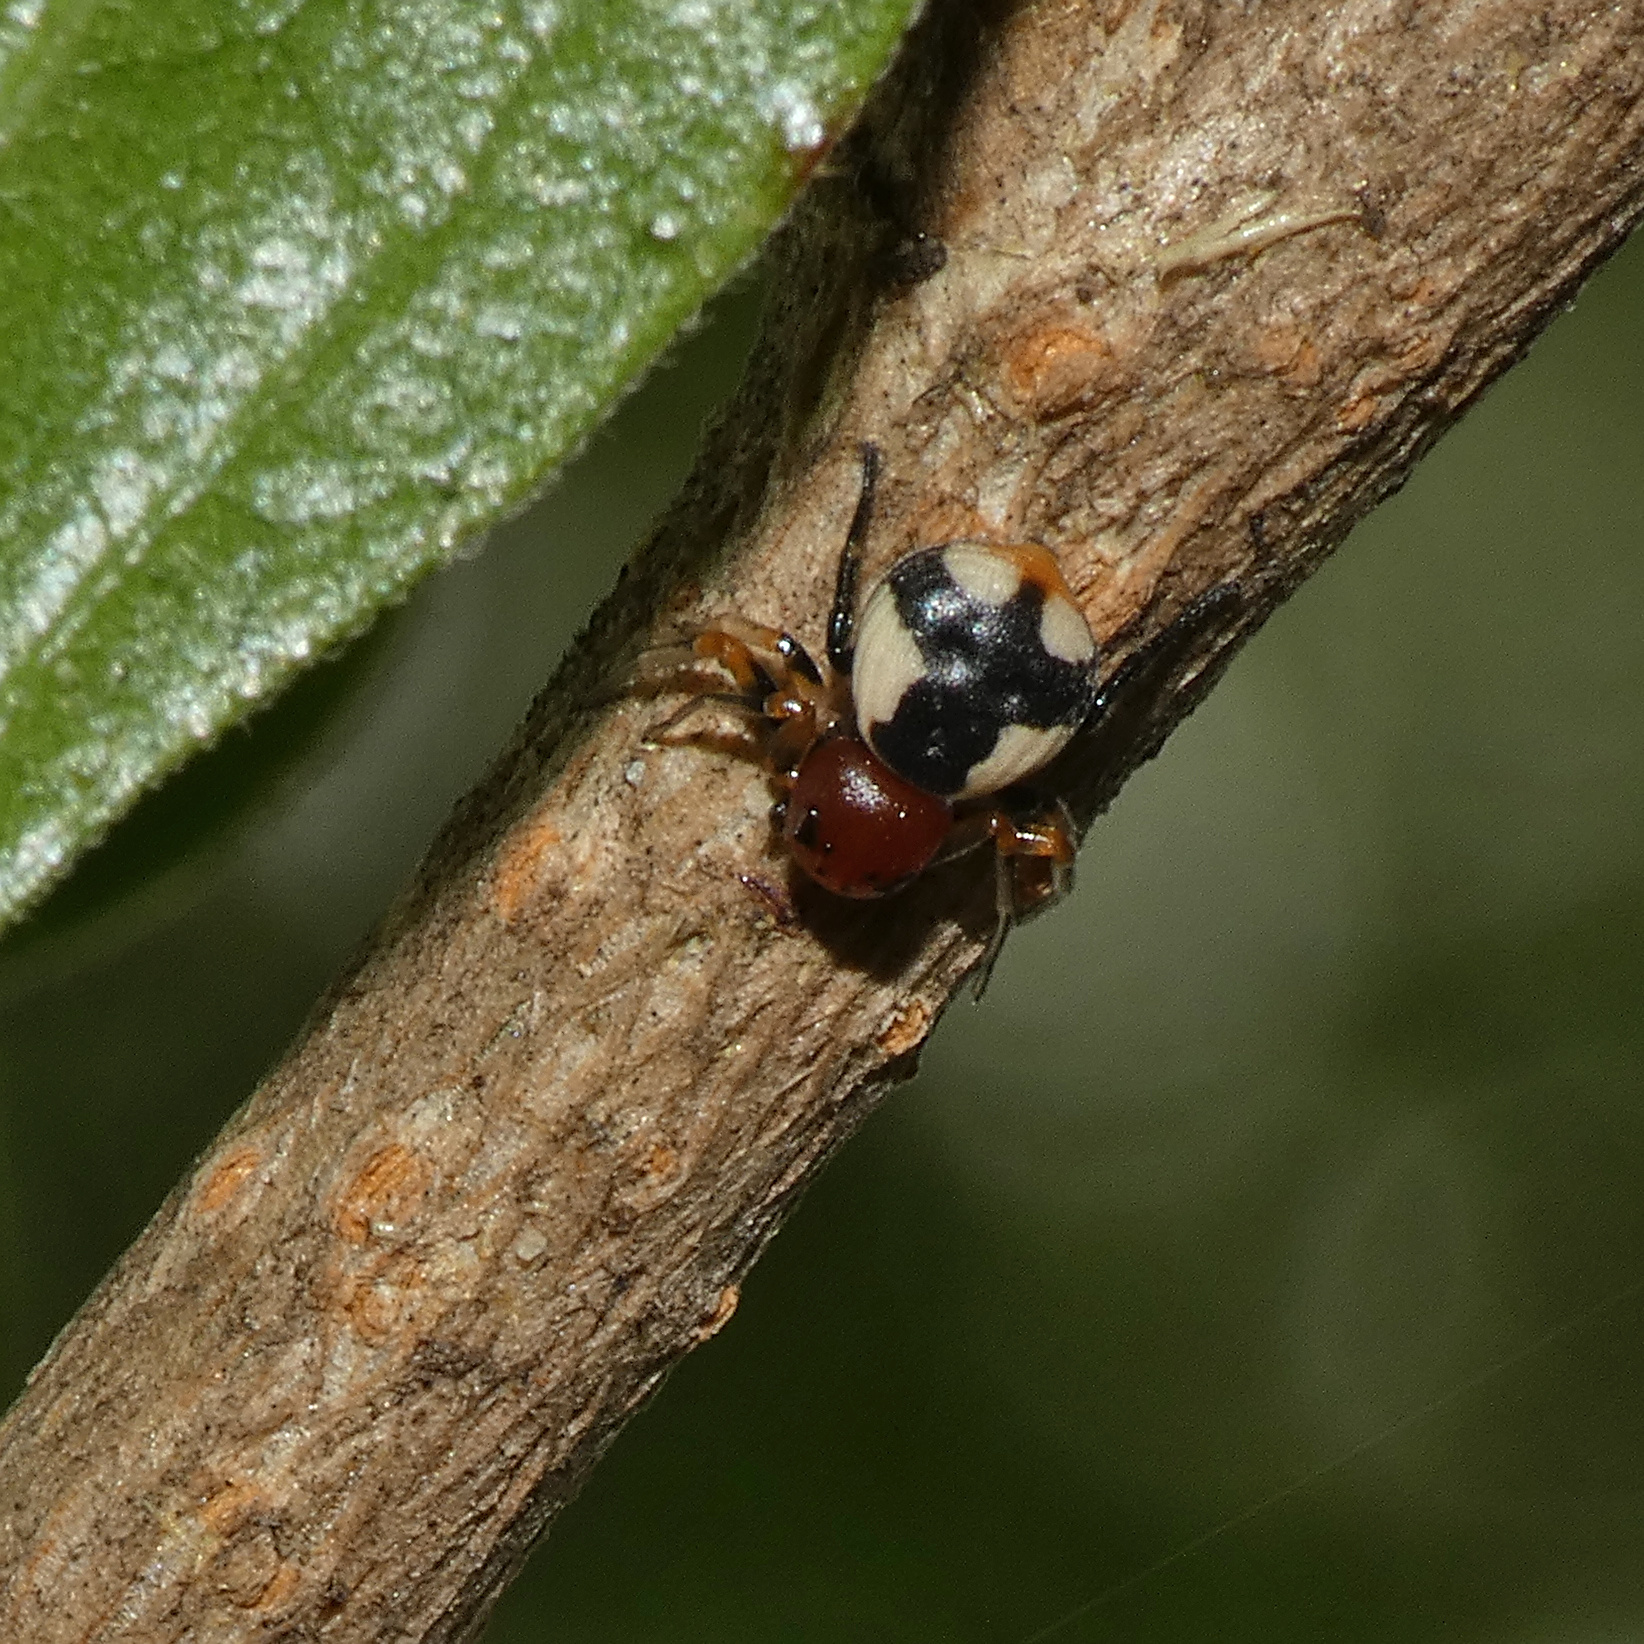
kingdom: Animalia
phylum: Arthropoda
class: Arachnida
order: Araneae
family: Thomisidae
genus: Mystaria
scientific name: Mystaria savannensis
